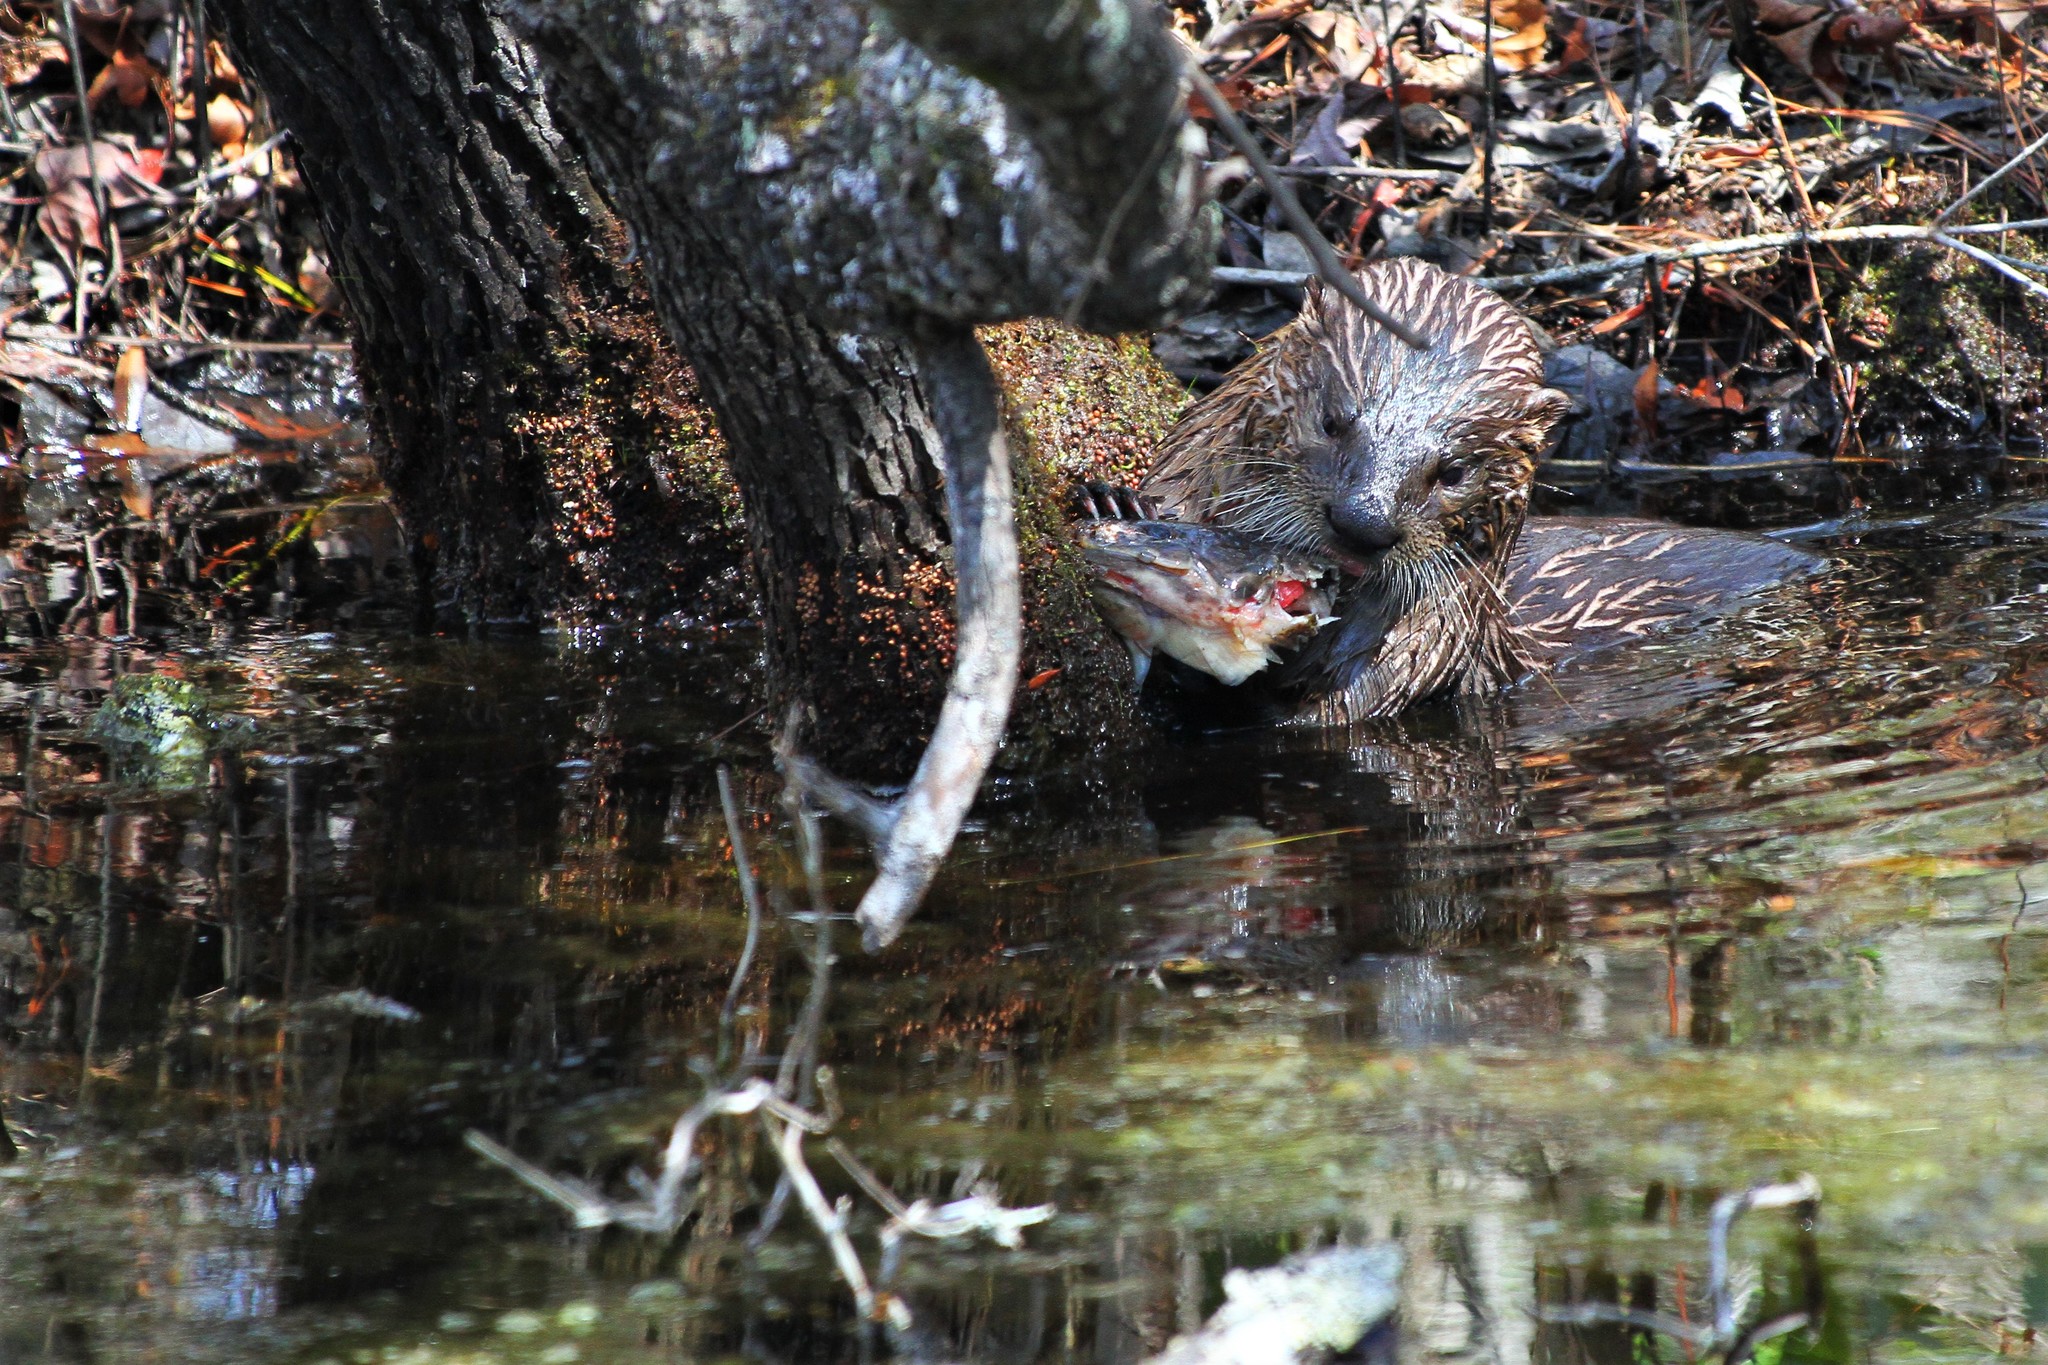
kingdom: Animalia
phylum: Chordata
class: Mammalia
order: Carnivora
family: Mustelidae
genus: Lontra
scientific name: Lontra canadensis
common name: North american river otter
